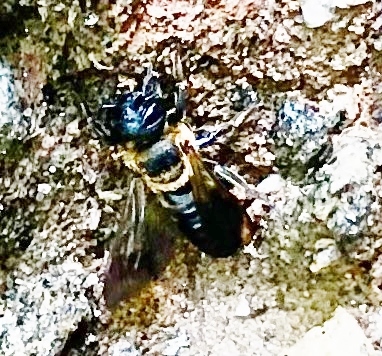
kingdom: Animalia
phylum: Arthropoda
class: Insecta
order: Hymenoptera
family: Megachilidae
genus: Megachile
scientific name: Megachile sculpturalis
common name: Sculptured resin bee
